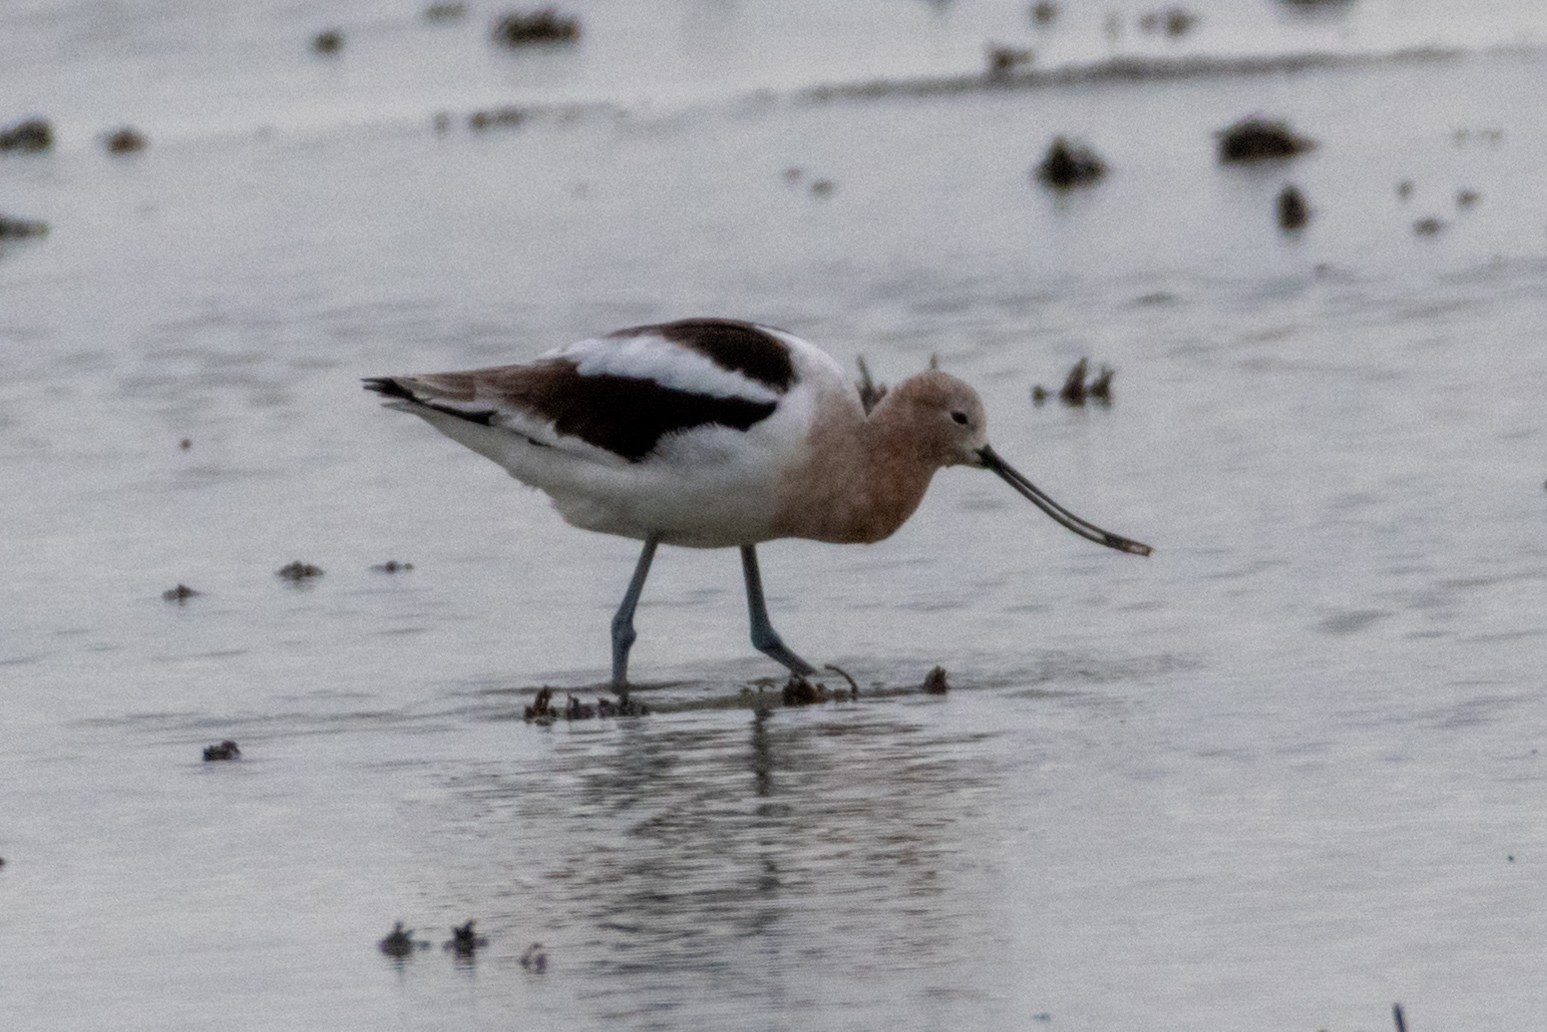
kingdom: Animalia
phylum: Chordata
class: Aves
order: Charadriiformes
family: Recurvirostridae
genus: Recurvirostra
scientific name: Recurvirostra americana
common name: American avocet
